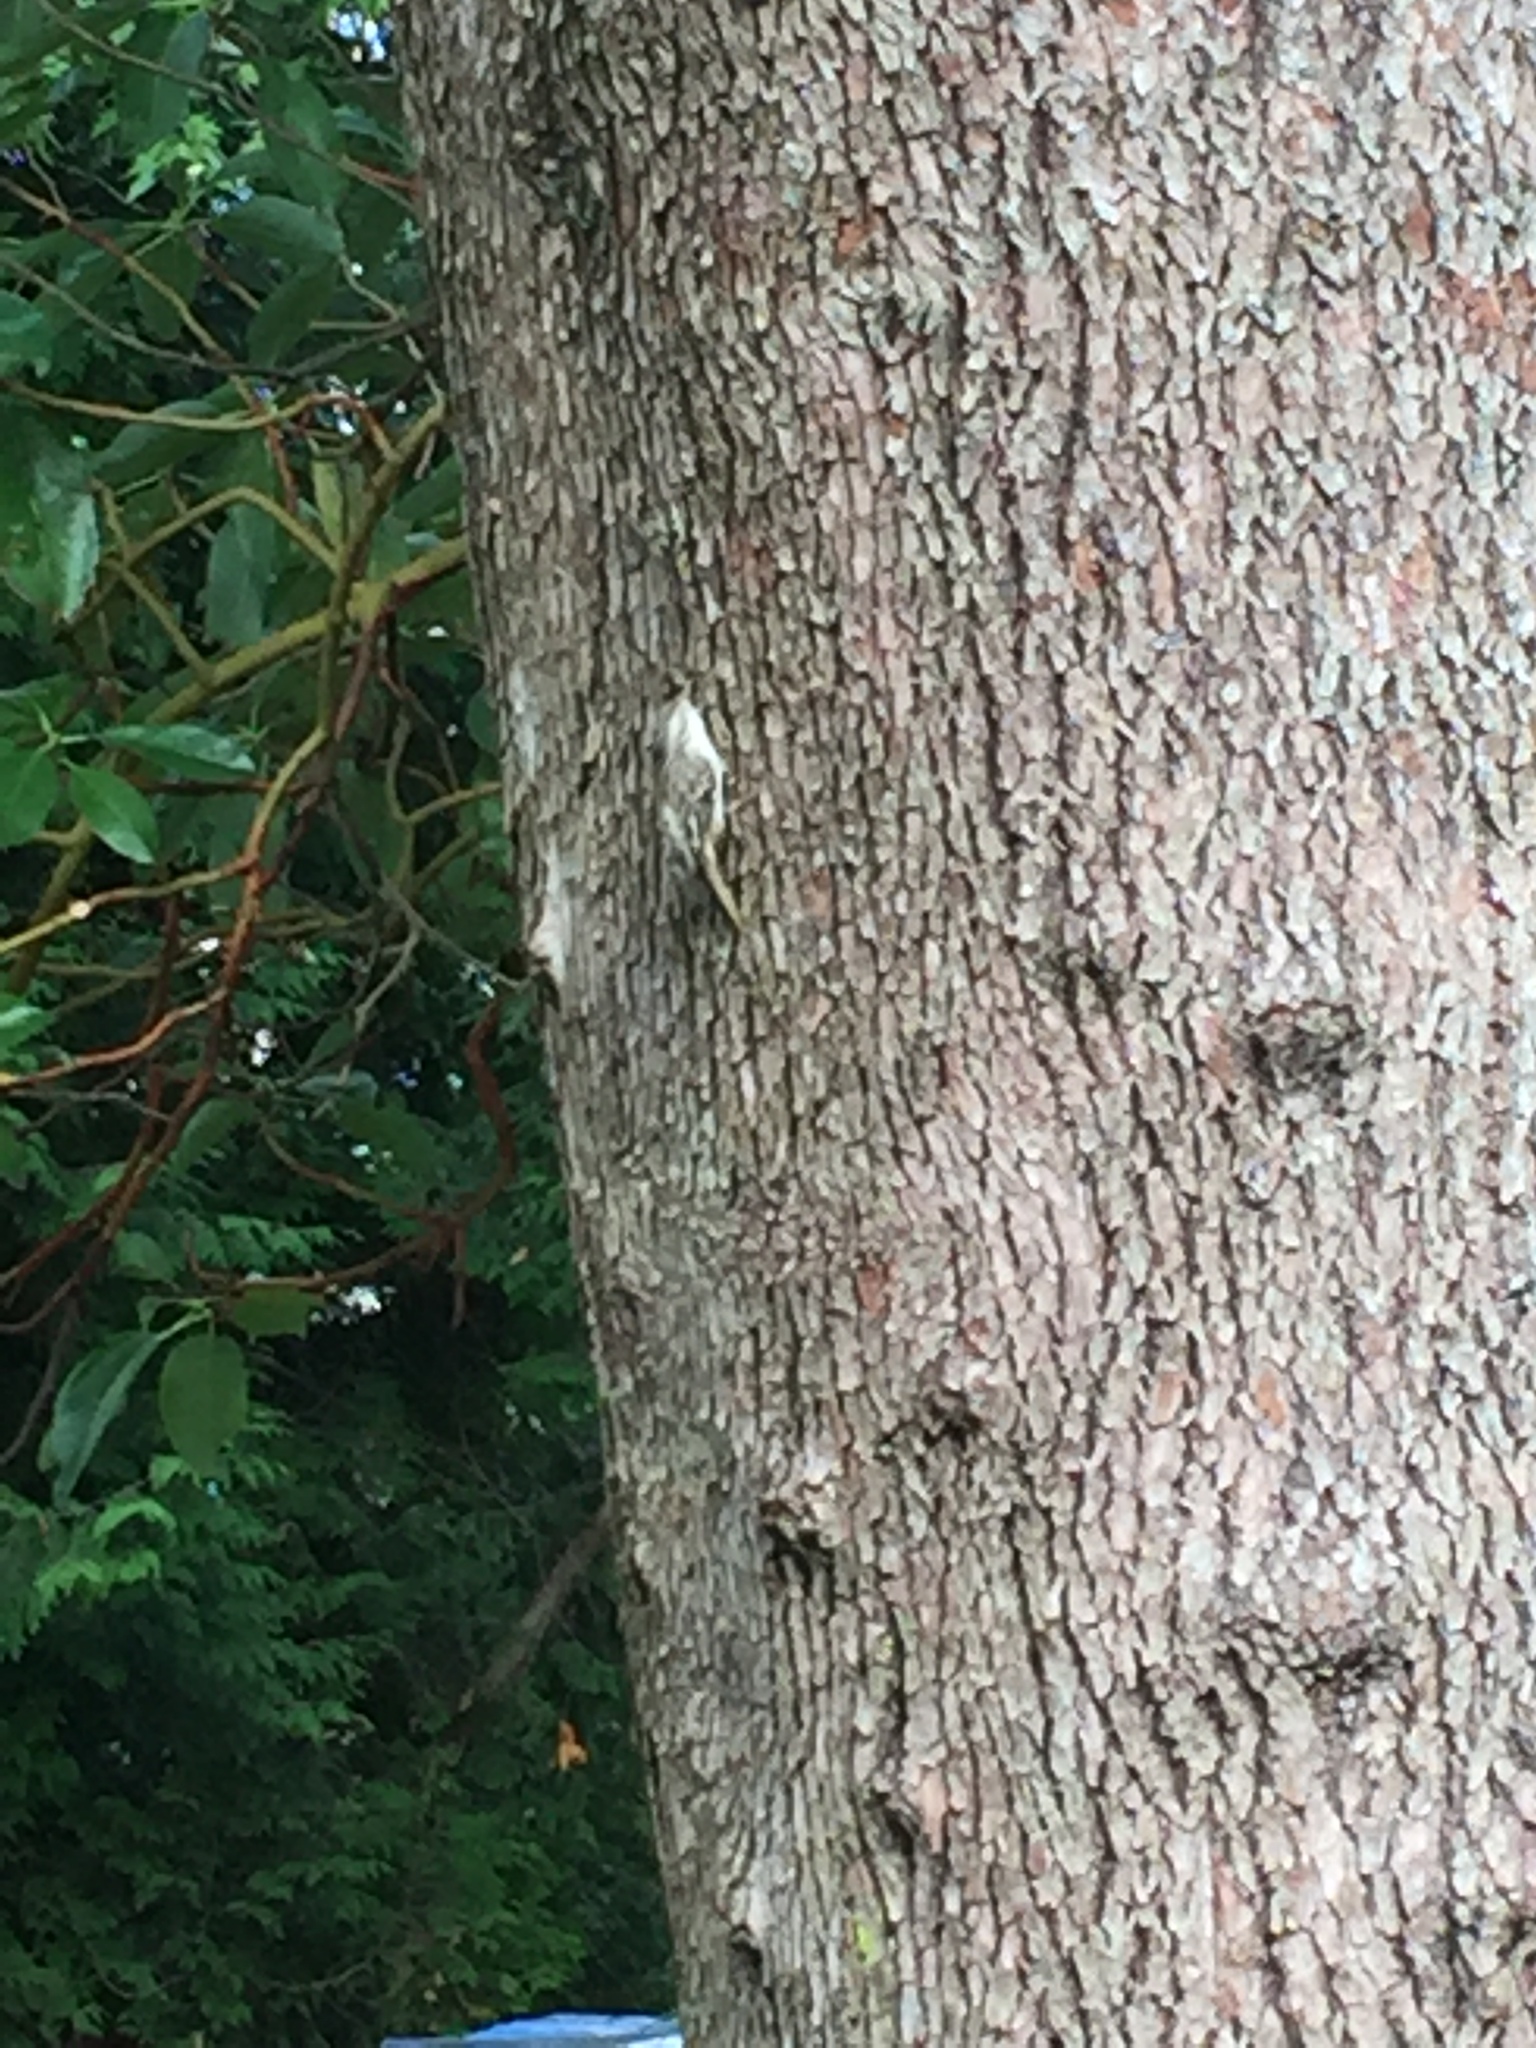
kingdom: Animalia
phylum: Chordata
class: Aves
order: Passeriformes
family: Certhiidae
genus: Certhia
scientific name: Certhia americana
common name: Brown creeper
